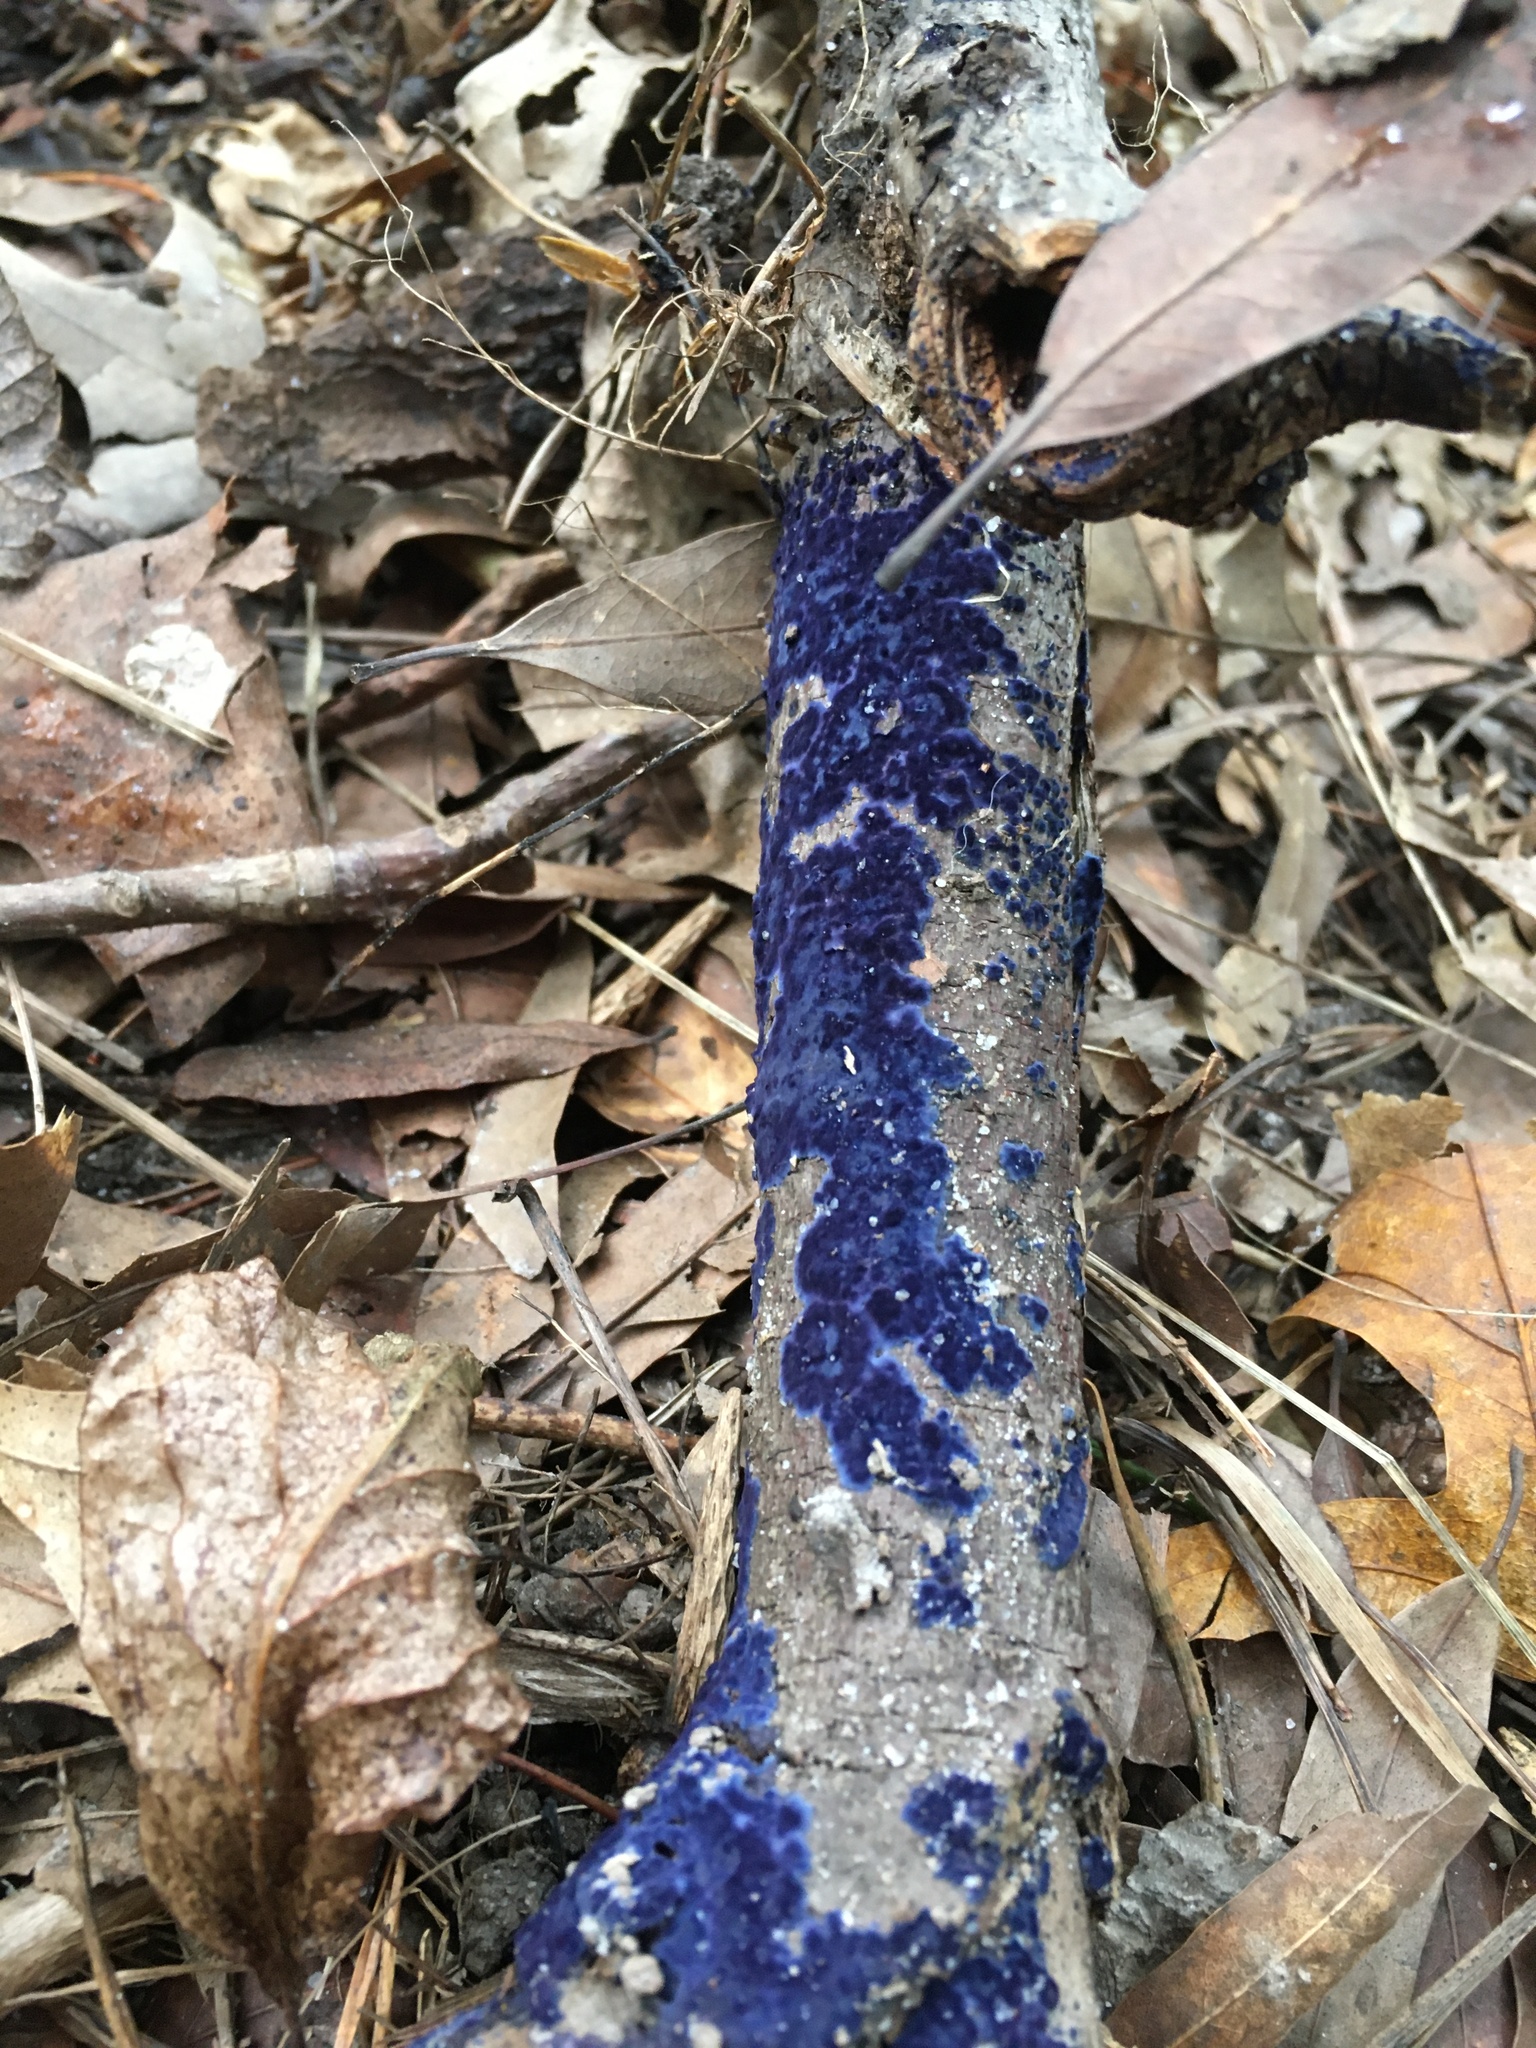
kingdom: Fungi
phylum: Basidiomycota
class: Agaricomycetes
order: Polyporales
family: Phanerochaetaceae
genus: Terana
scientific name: Terana coerulea
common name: Cobalt crust
